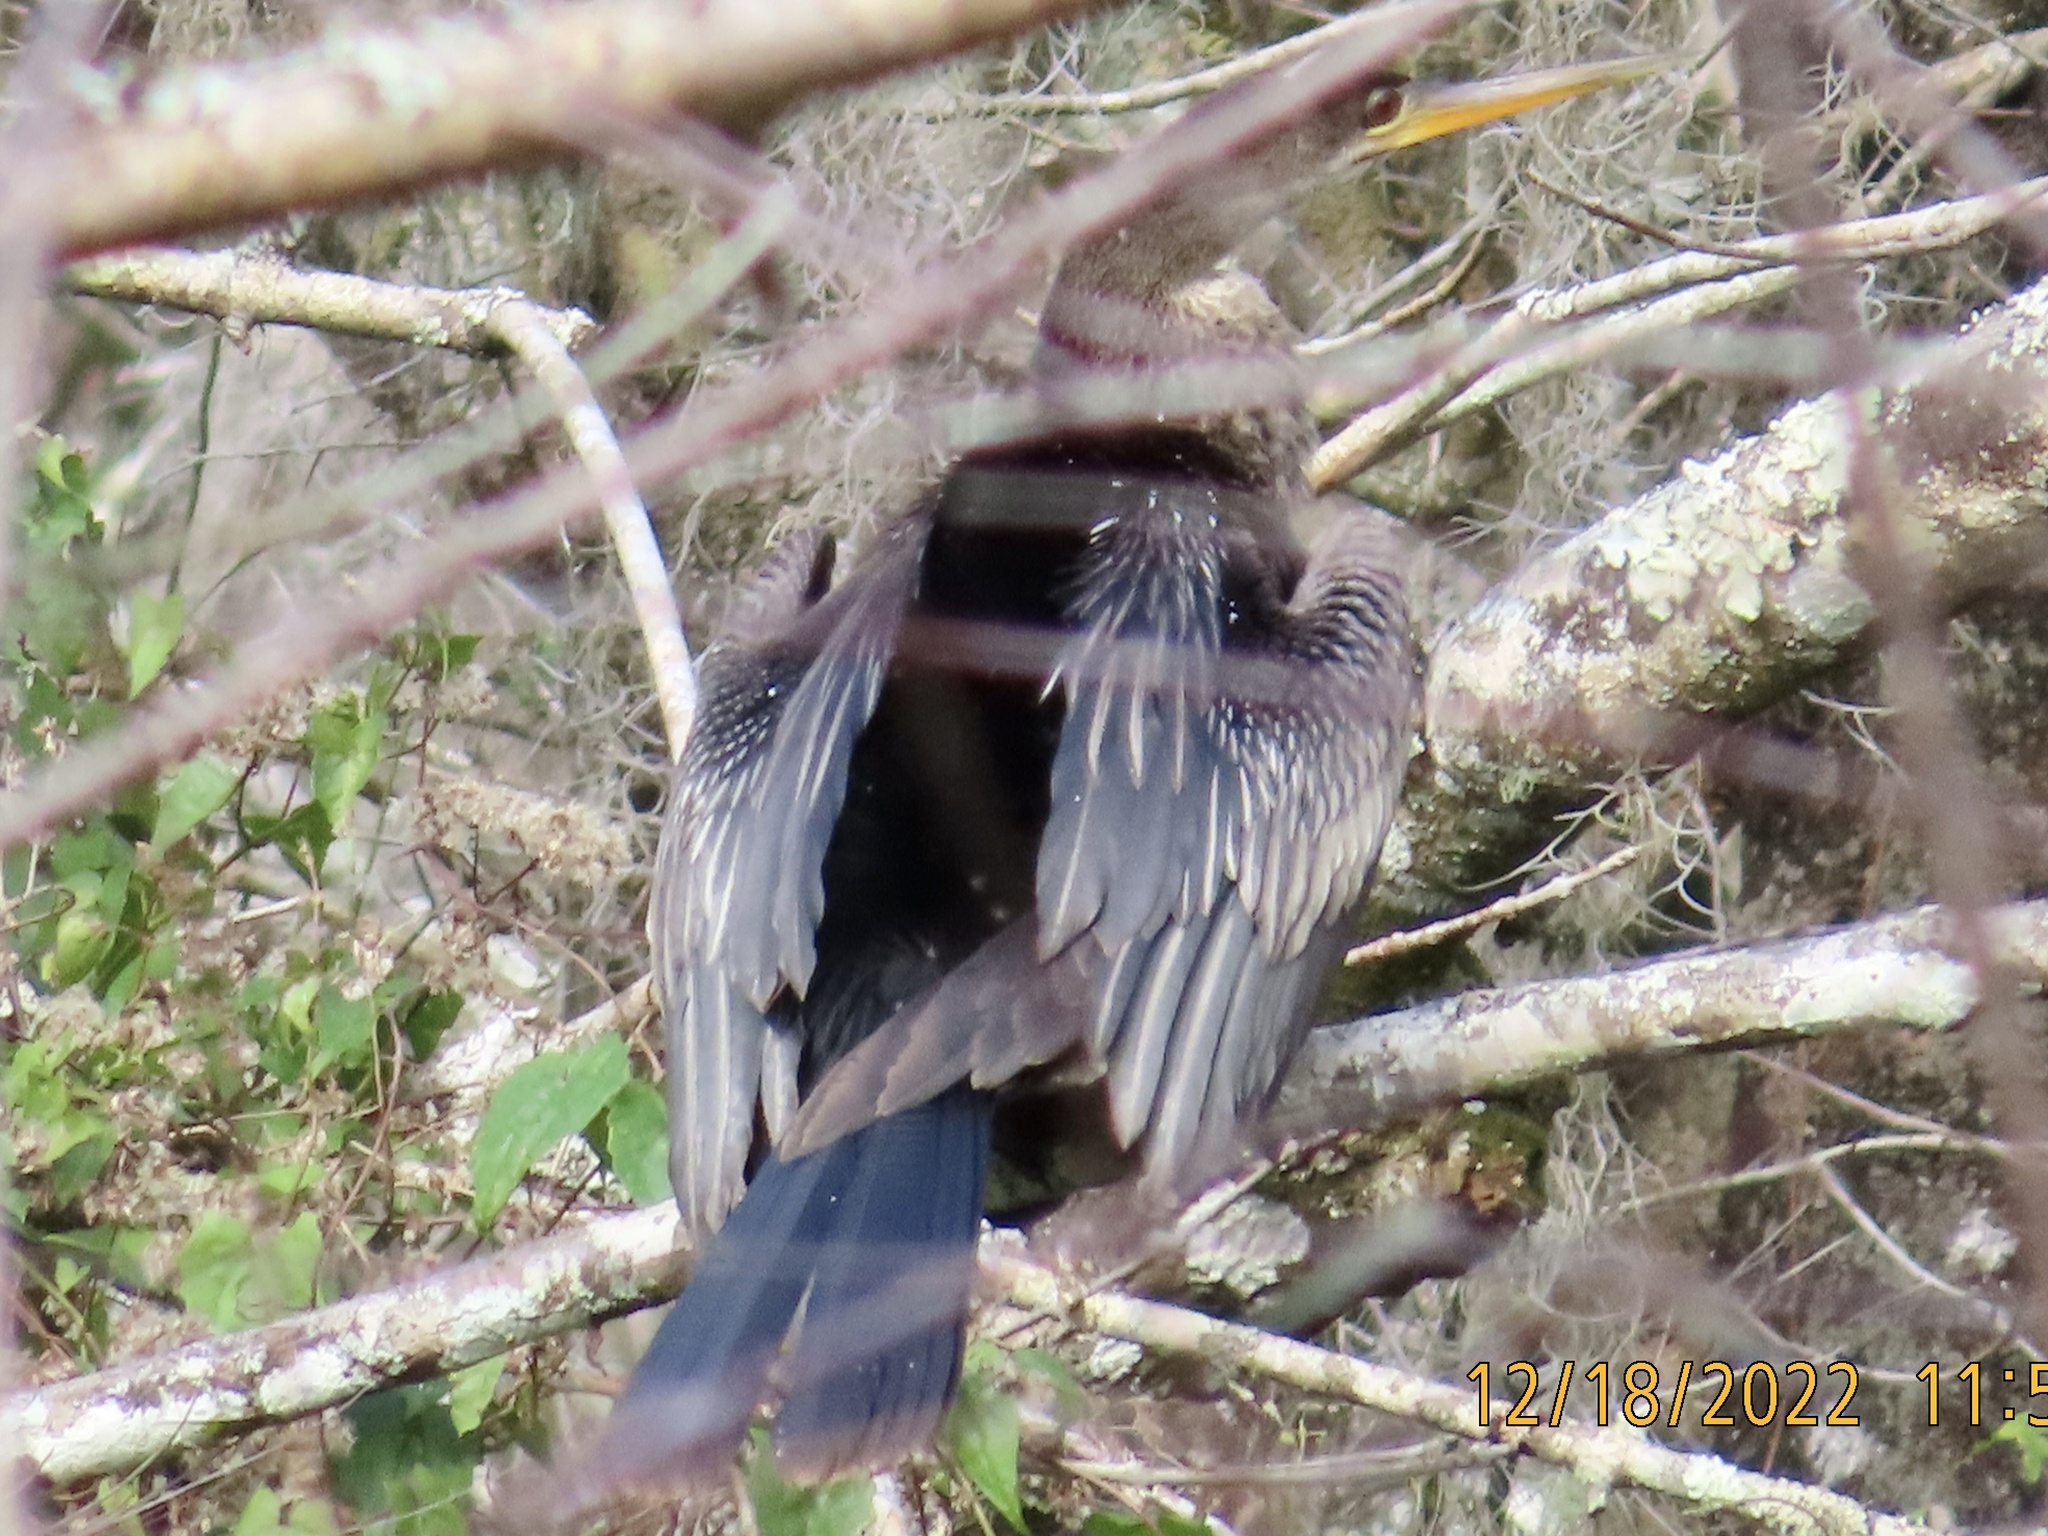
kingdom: Animalia
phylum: Chordata
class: Aves
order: Suliformes
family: Anhingidae
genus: Anhinga
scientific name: Anhinga anhinga
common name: Anhinga
